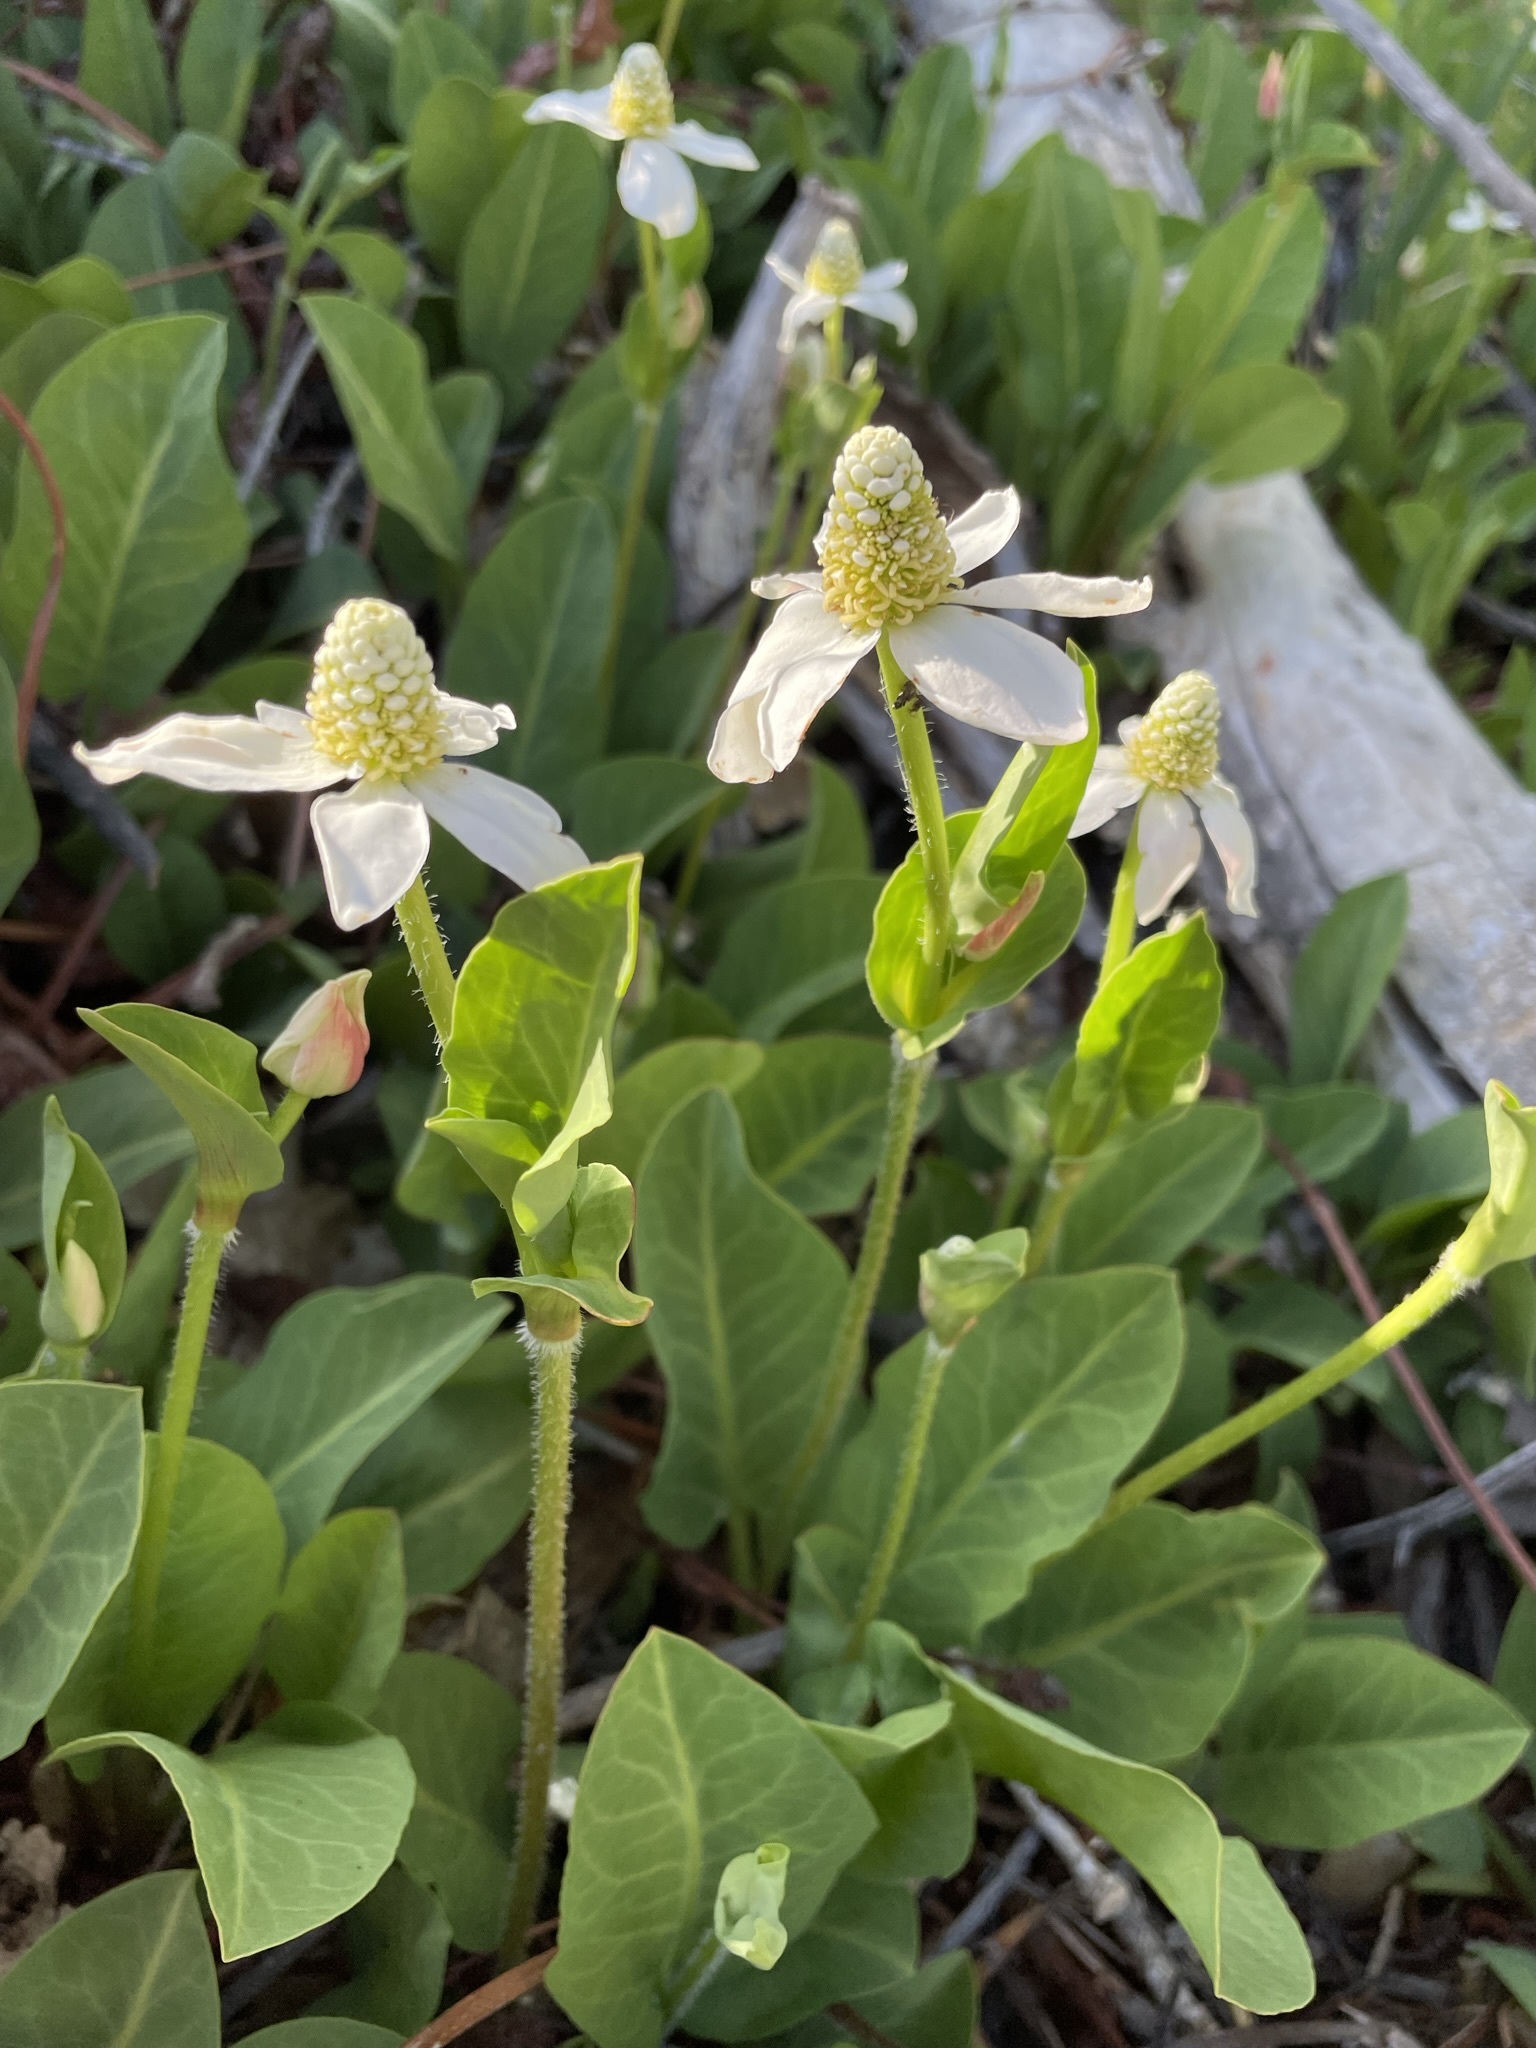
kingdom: Plantae
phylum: Tracheophyta
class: Magnoliopsida
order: Piperales
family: Saururaceae
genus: Anemopsis
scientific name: Anemopsis californica
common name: Apache-beads
